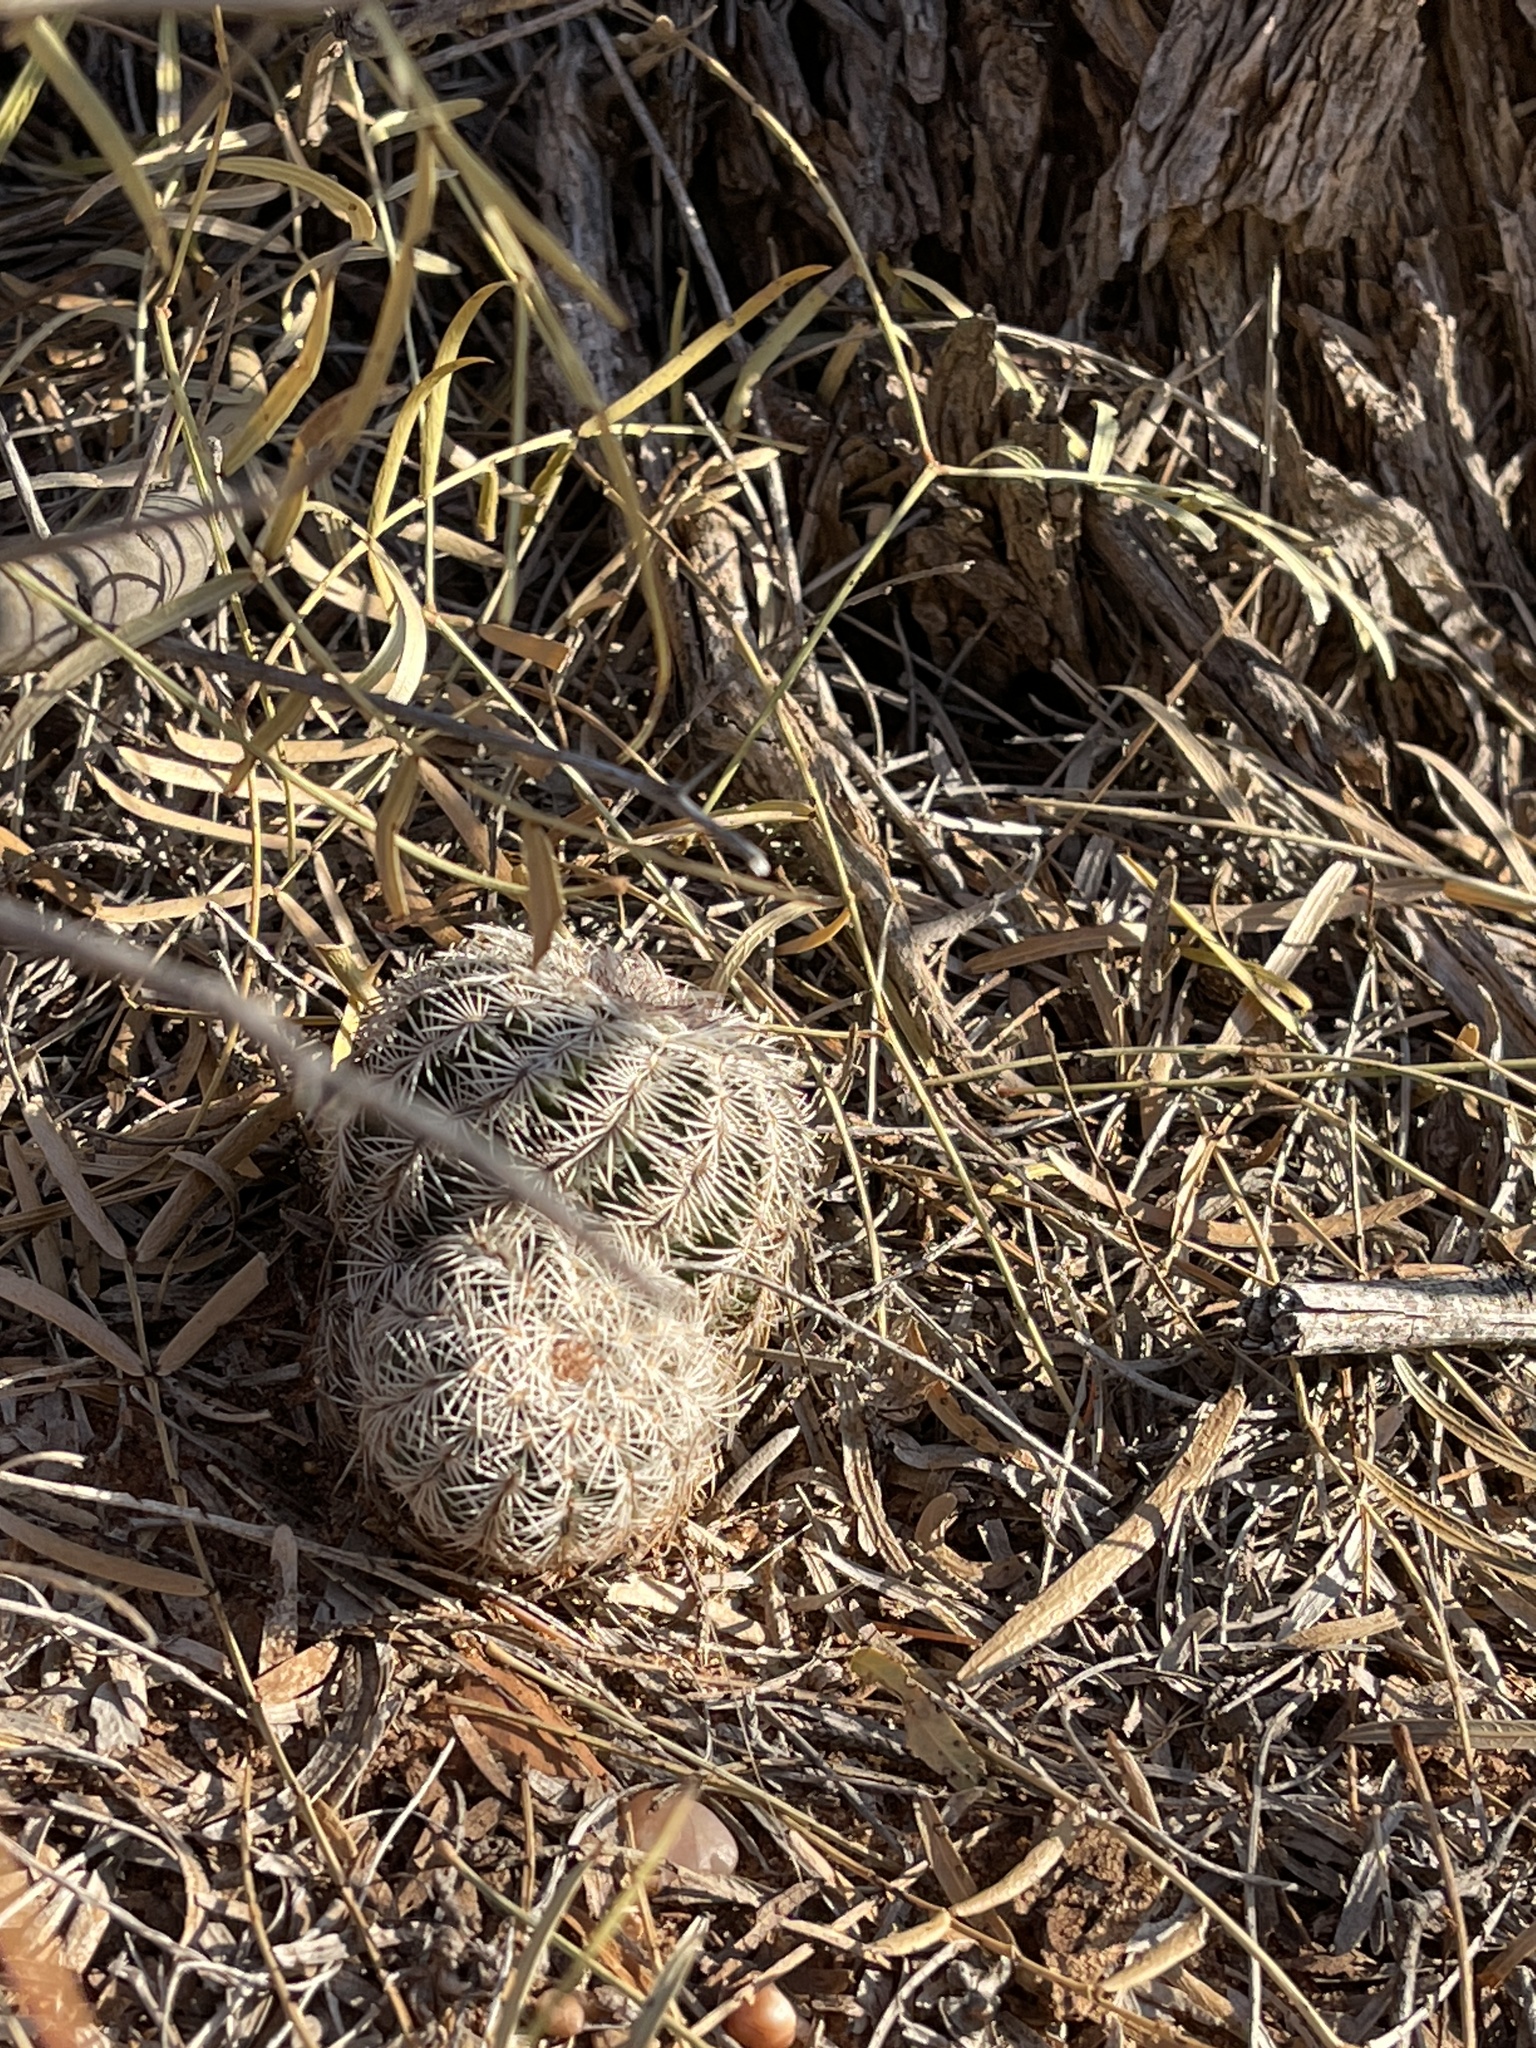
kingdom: Plantae
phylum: Tracheophyta
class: Magnoliopsida
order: Caryophyllales
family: Cactaceae
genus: Echinocereus
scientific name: Echinocereus reichenbachii
